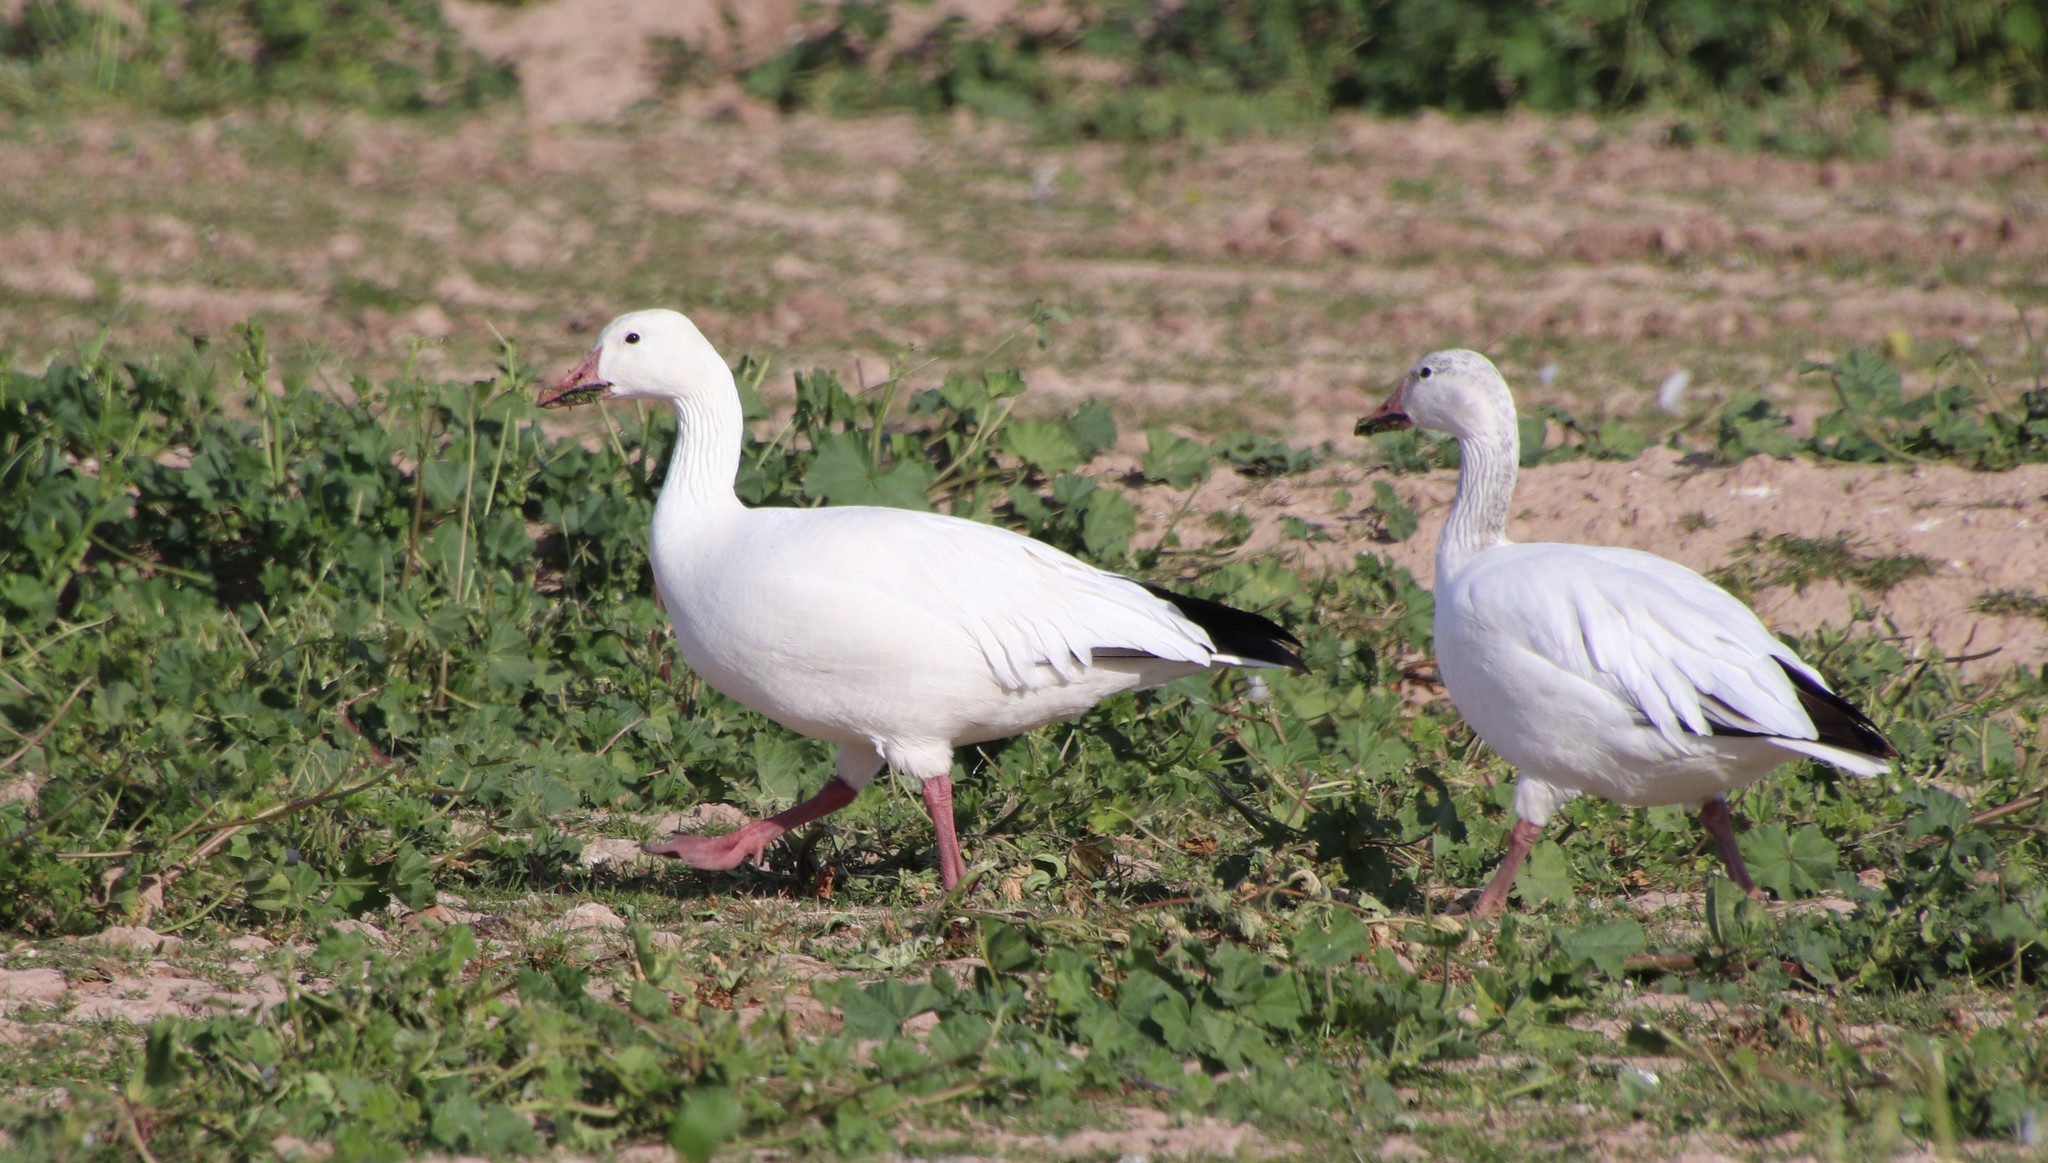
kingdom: Animalia
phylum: Chordata
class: Aves
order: Anseriformes
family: Anatidae
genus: Anser
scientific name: Anser caerulescens
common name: Snow goose
